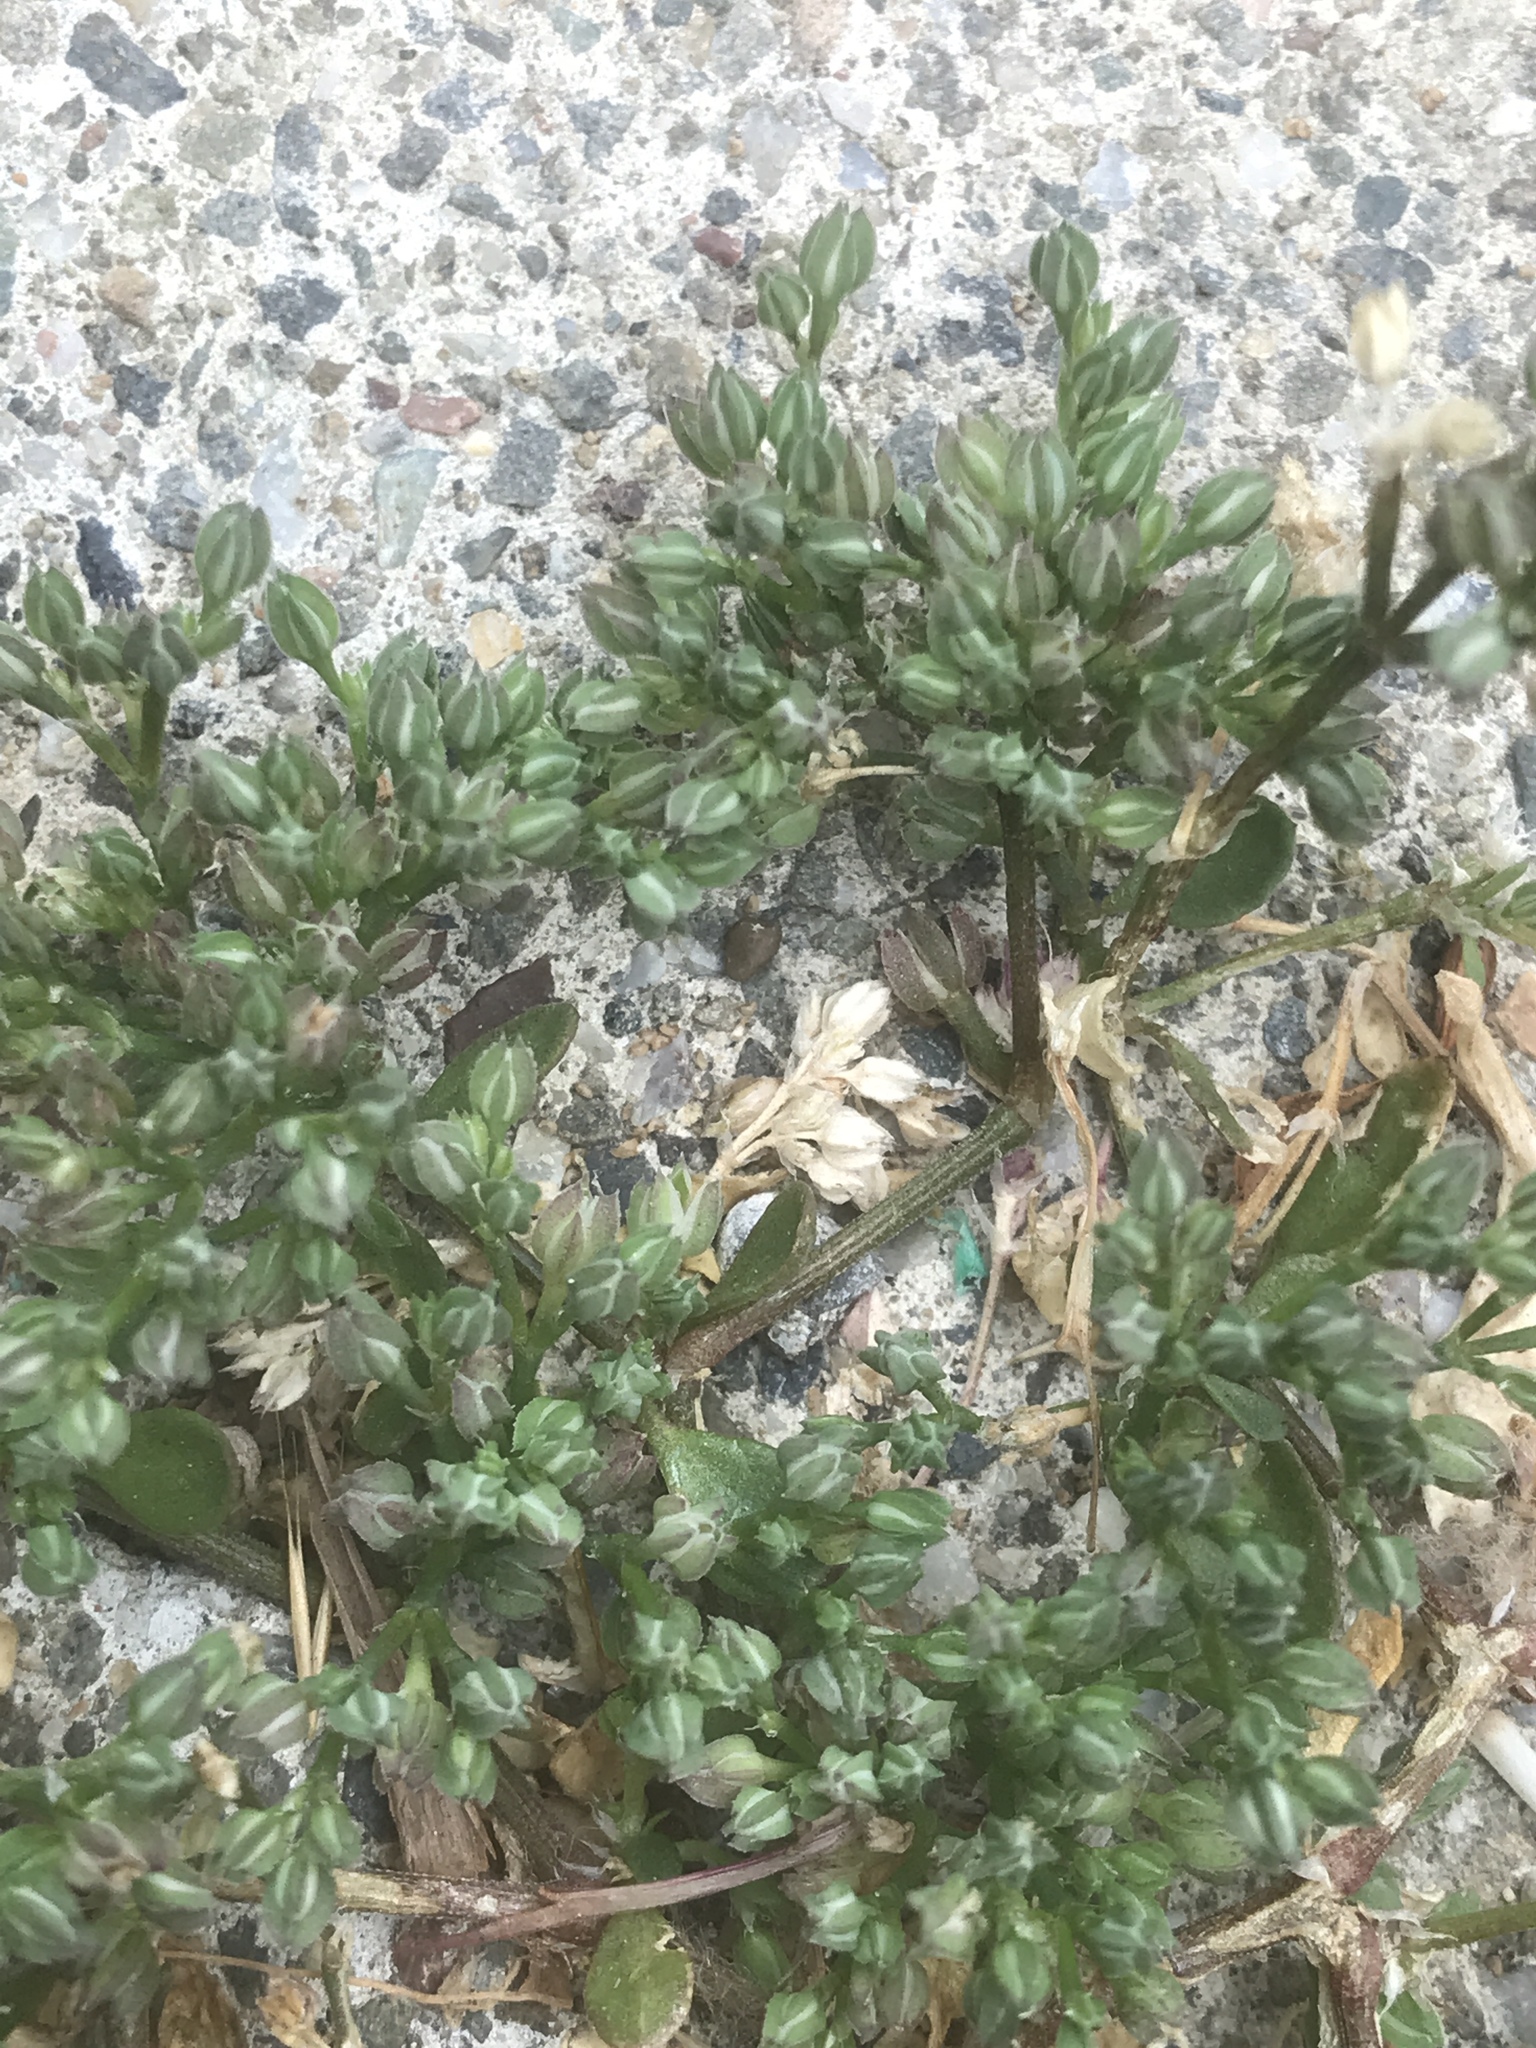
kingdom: Plantae
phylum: Tracheophyta
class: Magnoliopsida
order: Caryophyllales
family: Caryophyllaceae
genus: Polycarpon
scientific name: Polycarpon tetraphyllum
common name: Four-leaved all-seed
